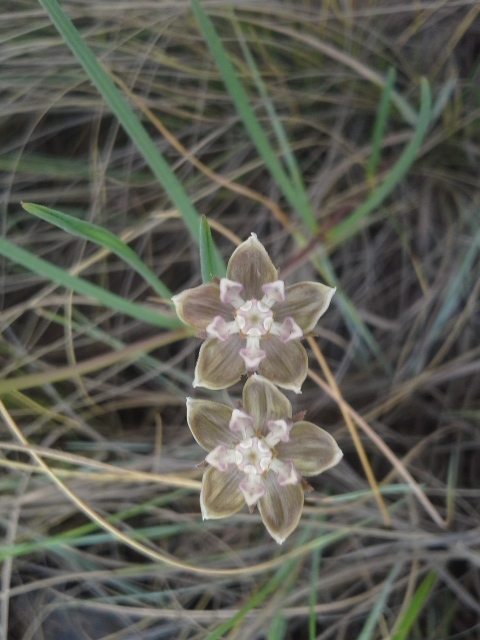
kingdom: Plantae
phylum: Tracheophyta
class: Magnoliopsida
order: Gentianales
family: Apocynaceae
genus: Asclepias
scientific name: Asclepias cucullata
